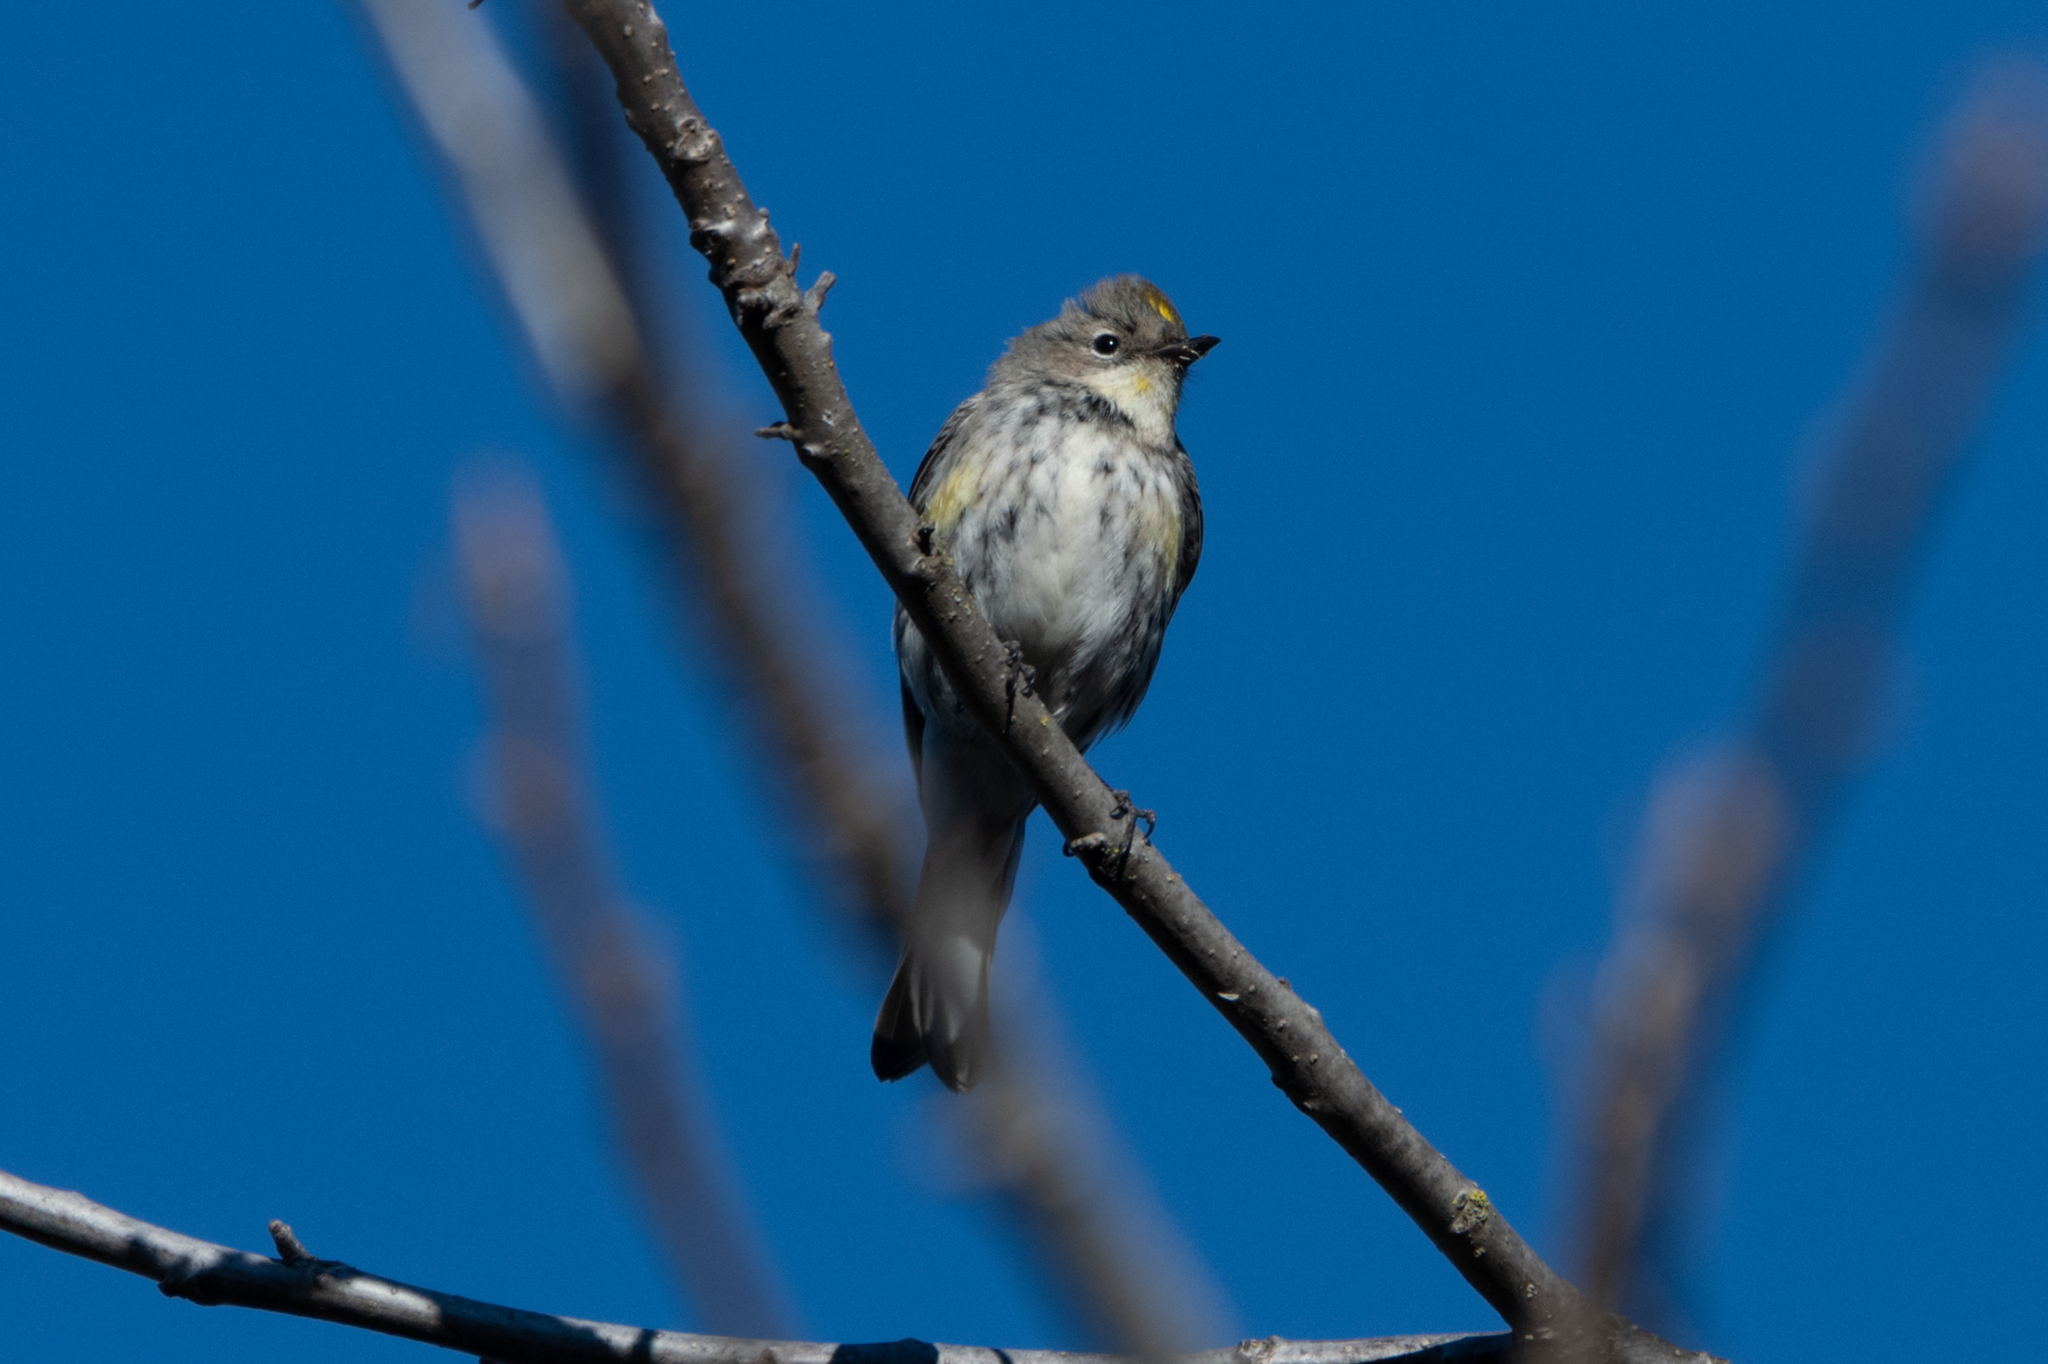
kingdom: Animalia
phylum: Chordata
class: Aves
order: Passeriformes
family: Parulidae
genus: Setophaga
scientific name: Setophaga coronata
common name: Myrtle warbler
